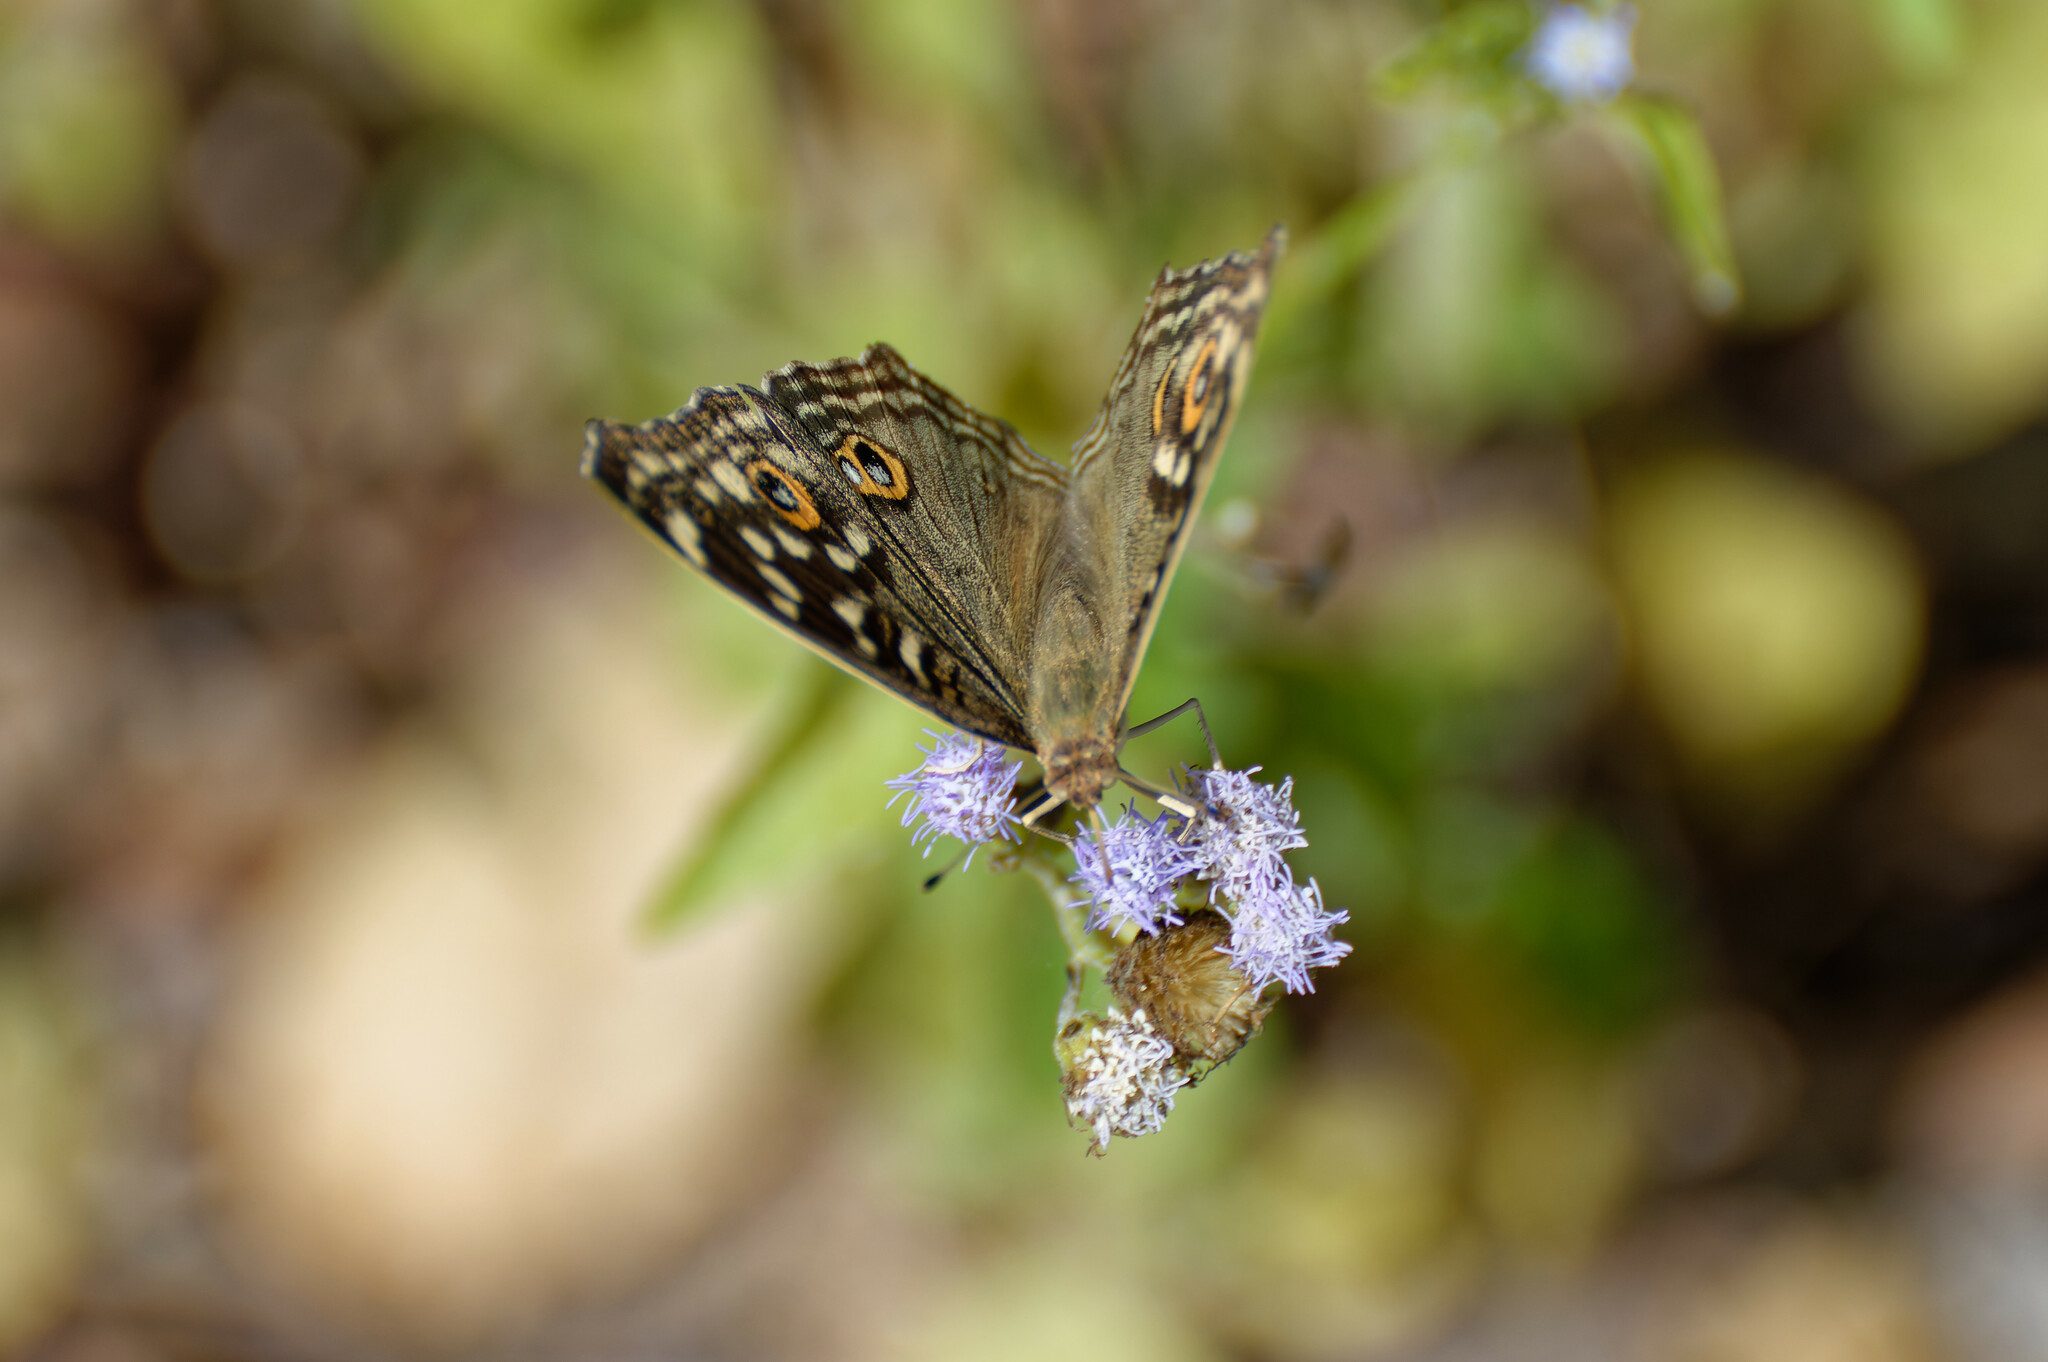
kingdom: Animalia
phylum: Arthropoda
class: Insecta
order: Lepidoptera
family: Nymphalidae
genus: Junonia
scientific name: Junonia lemonias
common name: Lemon pansy
